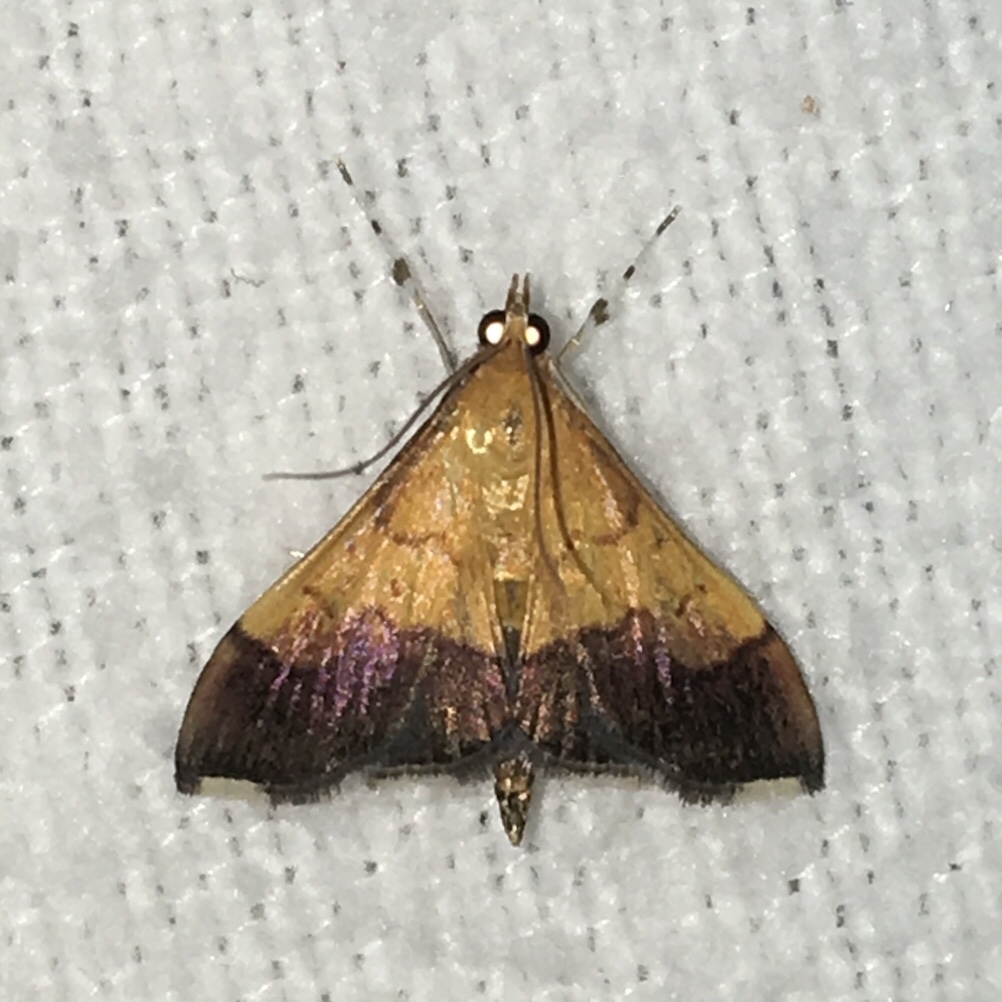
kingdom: Animalia
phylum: Arthropoda
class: Insecta
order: Lepidoptera
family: Crambidae
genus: Pyrausta
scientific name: Pyrausta bicoloralis
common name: Bicolored pyrausta moth
